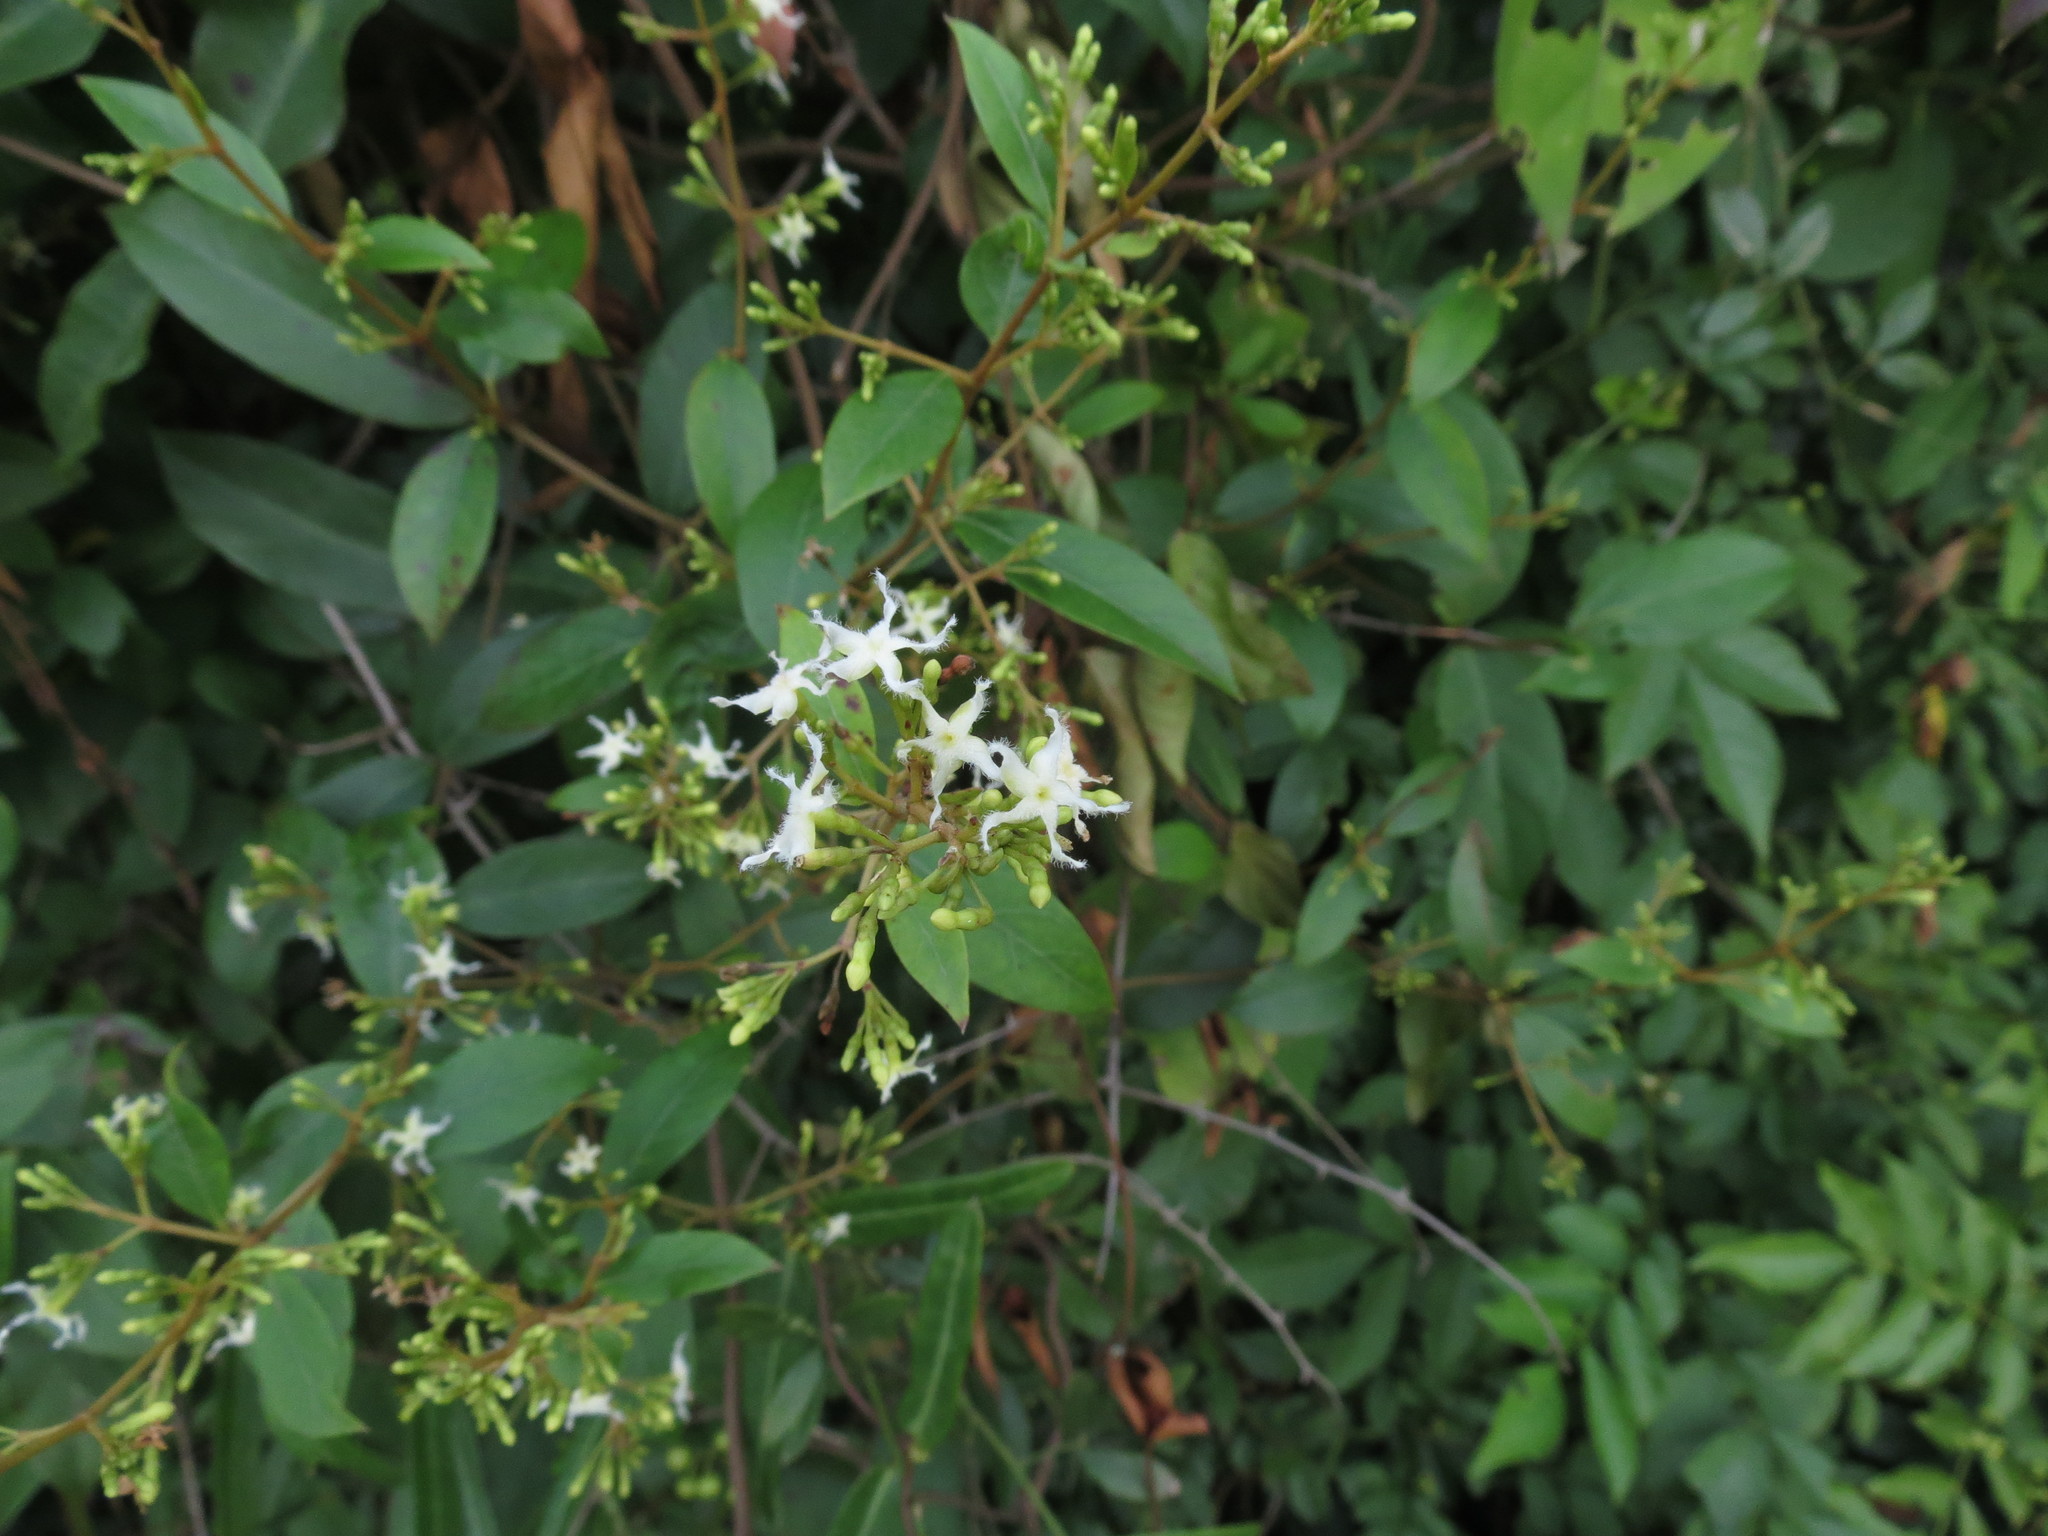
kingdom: Plantae
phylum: Tracheophyta
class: Magnoliopsida
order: Gentianales
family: Apocynaceae
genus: Ichnocarpus
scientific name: Ichnocarpus frutescens
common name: Ichnocarpus
